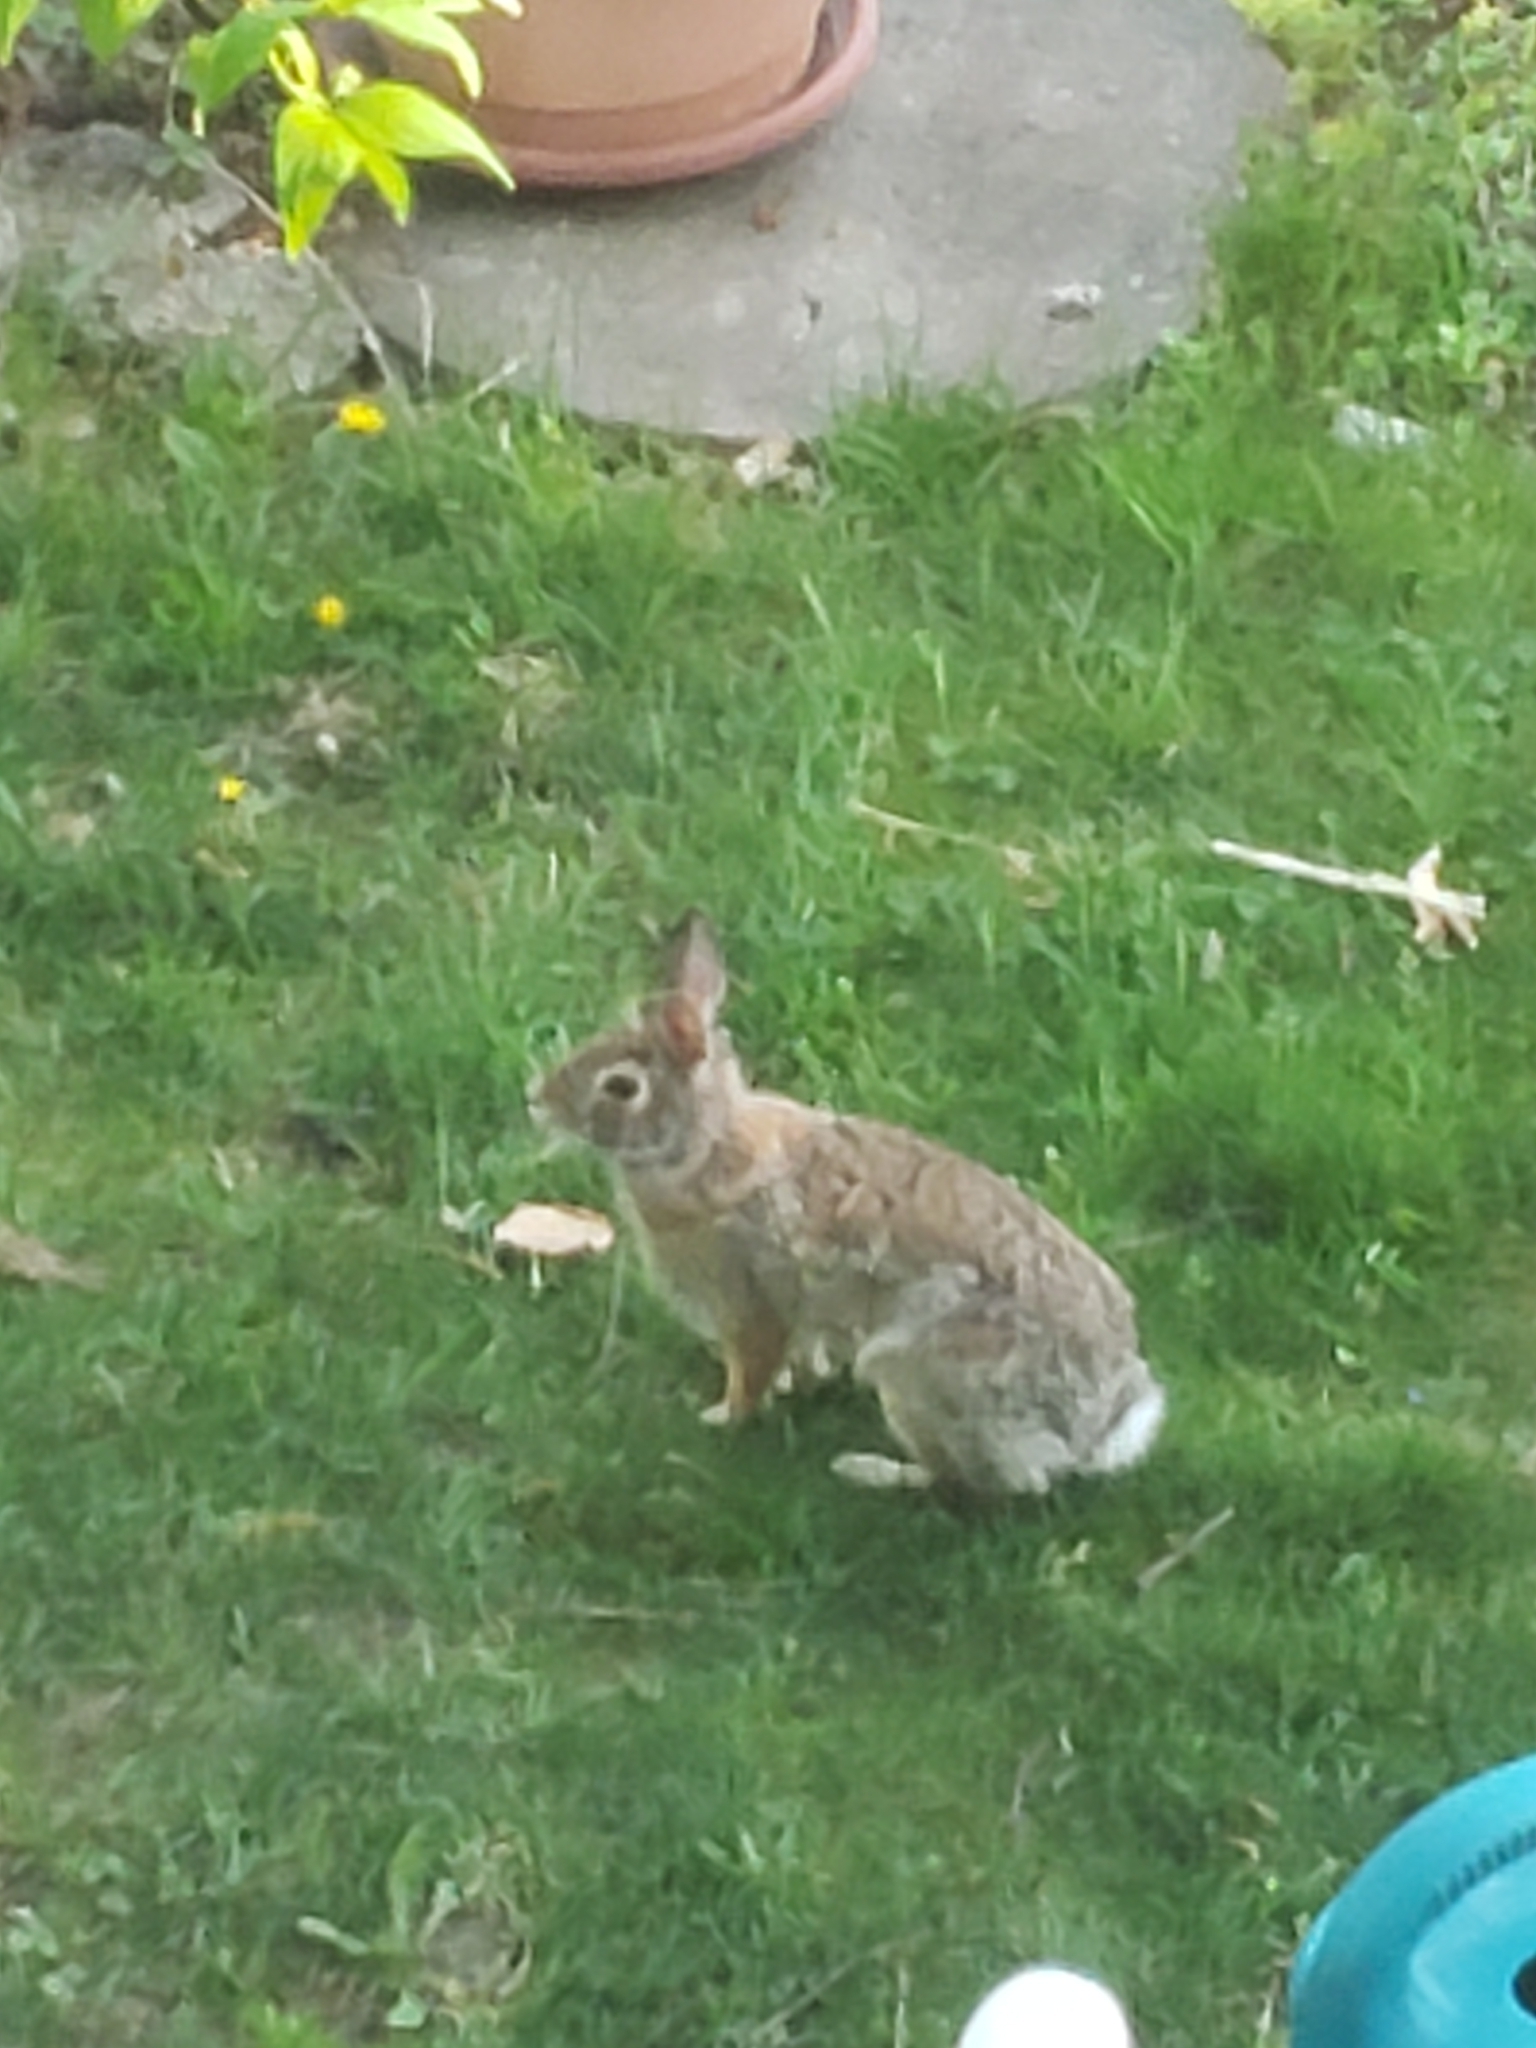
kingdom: Animalia
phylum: Chordata
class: Mammalia
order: Lagomorpha
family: Leporidae
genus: Sylvilagus
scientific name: Sylvilagus floridanus
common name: Eastern cottontail
